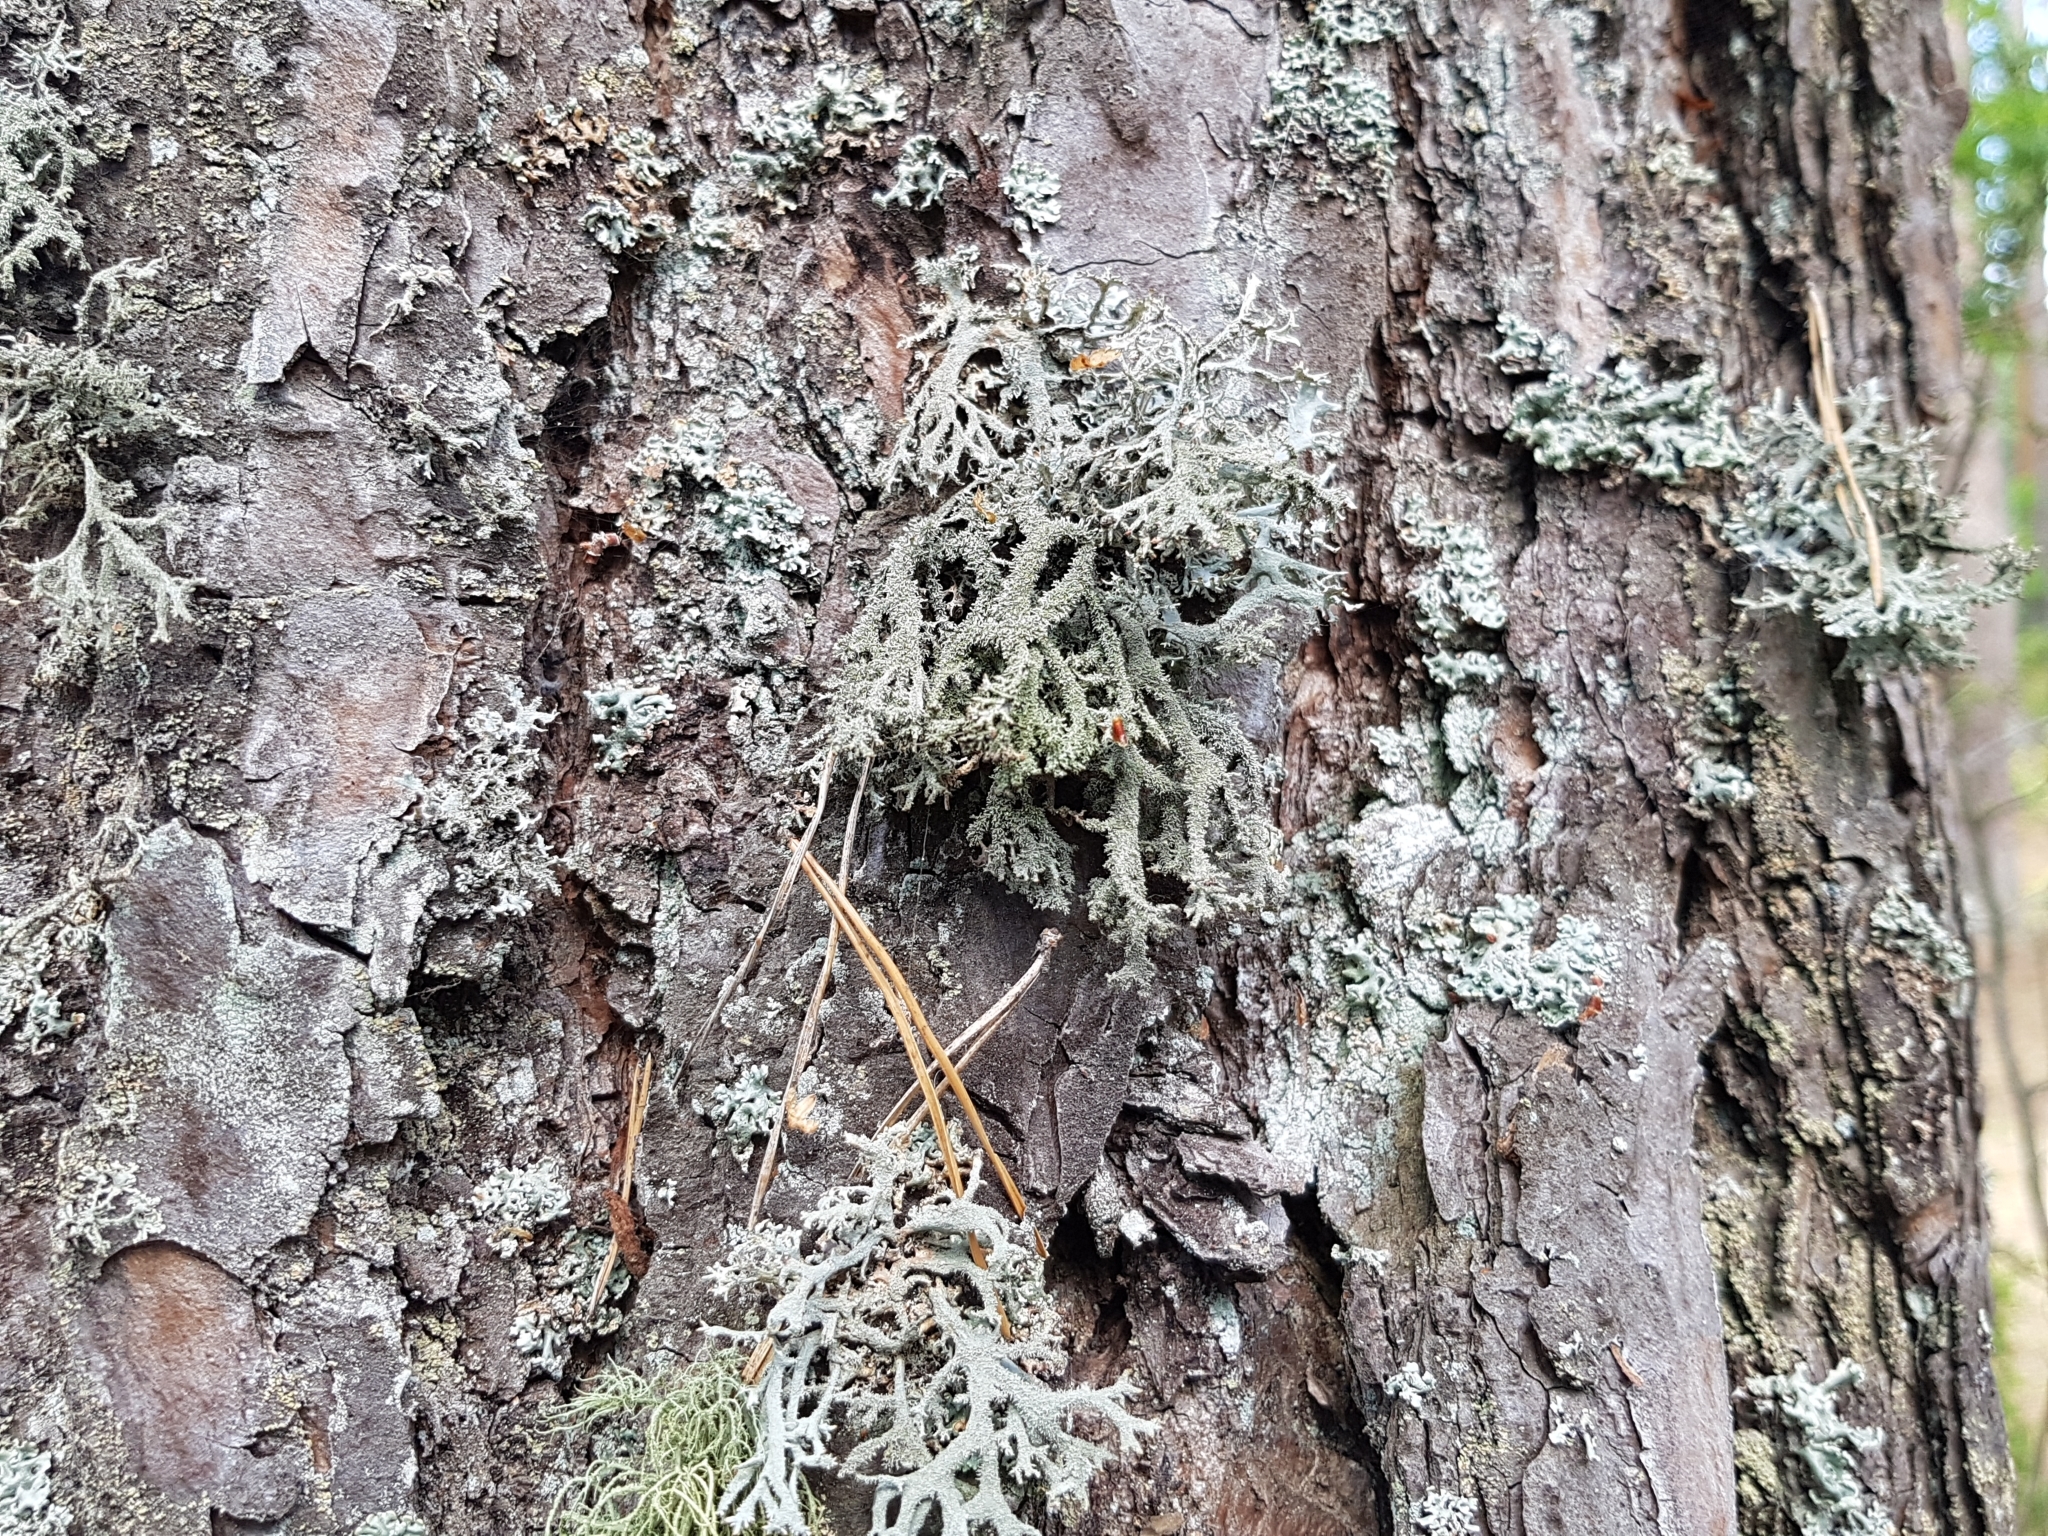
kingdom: Fungi
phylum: Ascomycota
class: Lecanoromycetes
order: Lecanorales
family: Parmeliaceae
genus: Pseudevernia
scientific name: Pseudevernia furfuracea
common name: Tree moss
